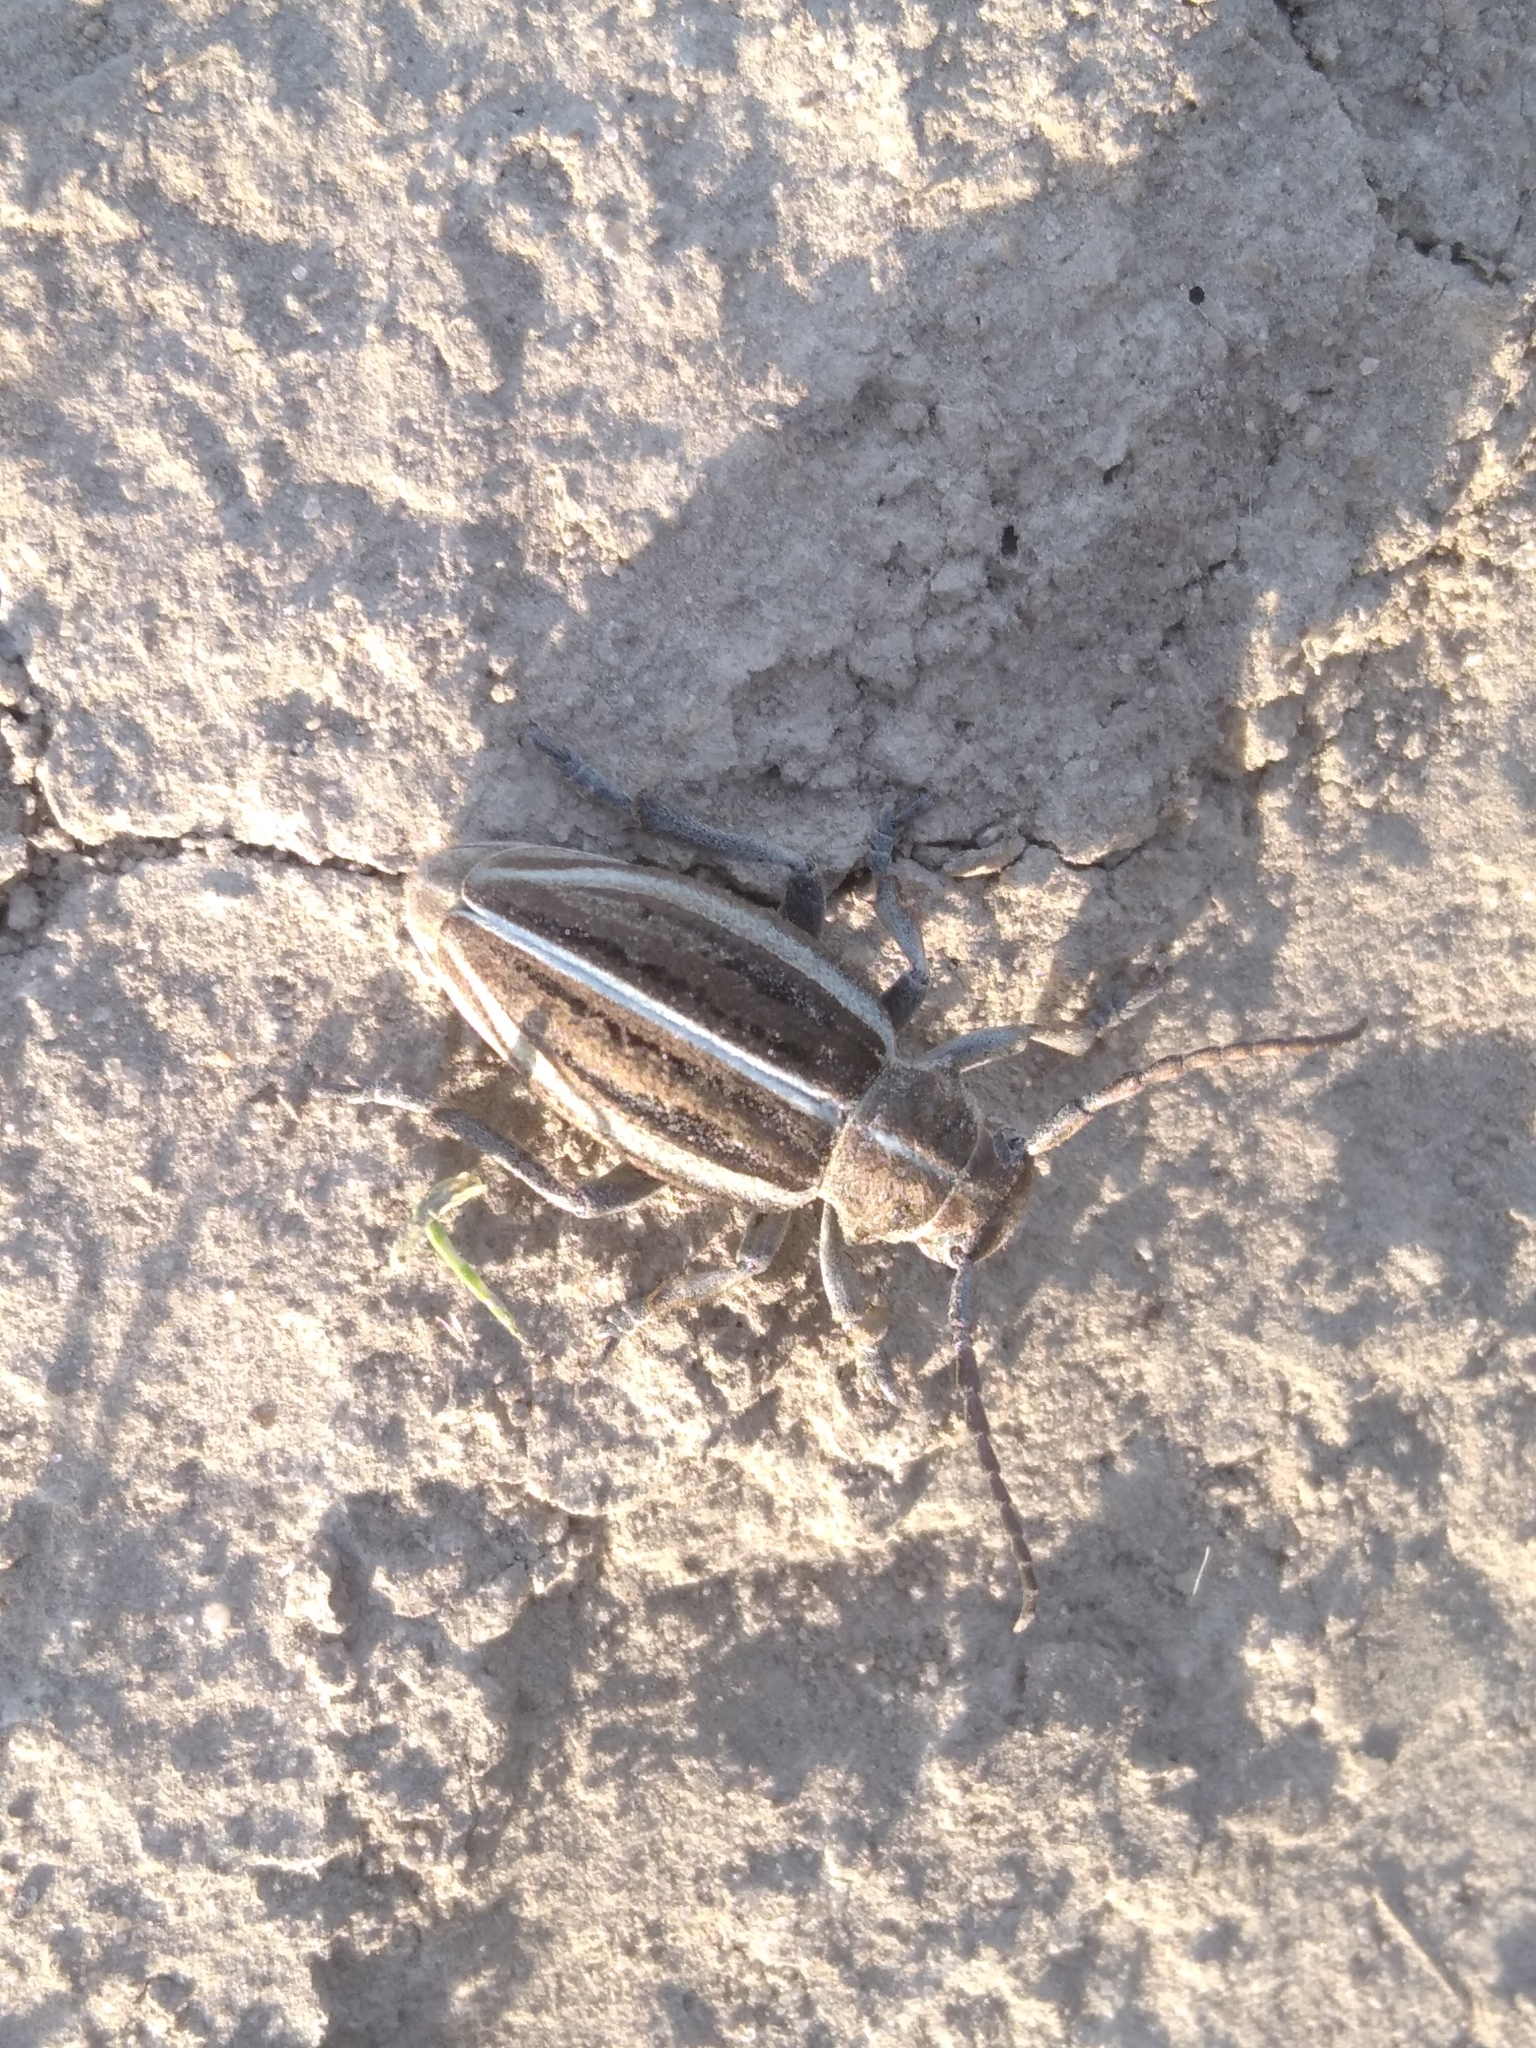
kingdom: Animalia
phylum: Arthropoda
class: Insecta
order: Coleoptera
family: Cerambycidae
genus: Dorcadion
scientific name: Dorcadion holosericeum
